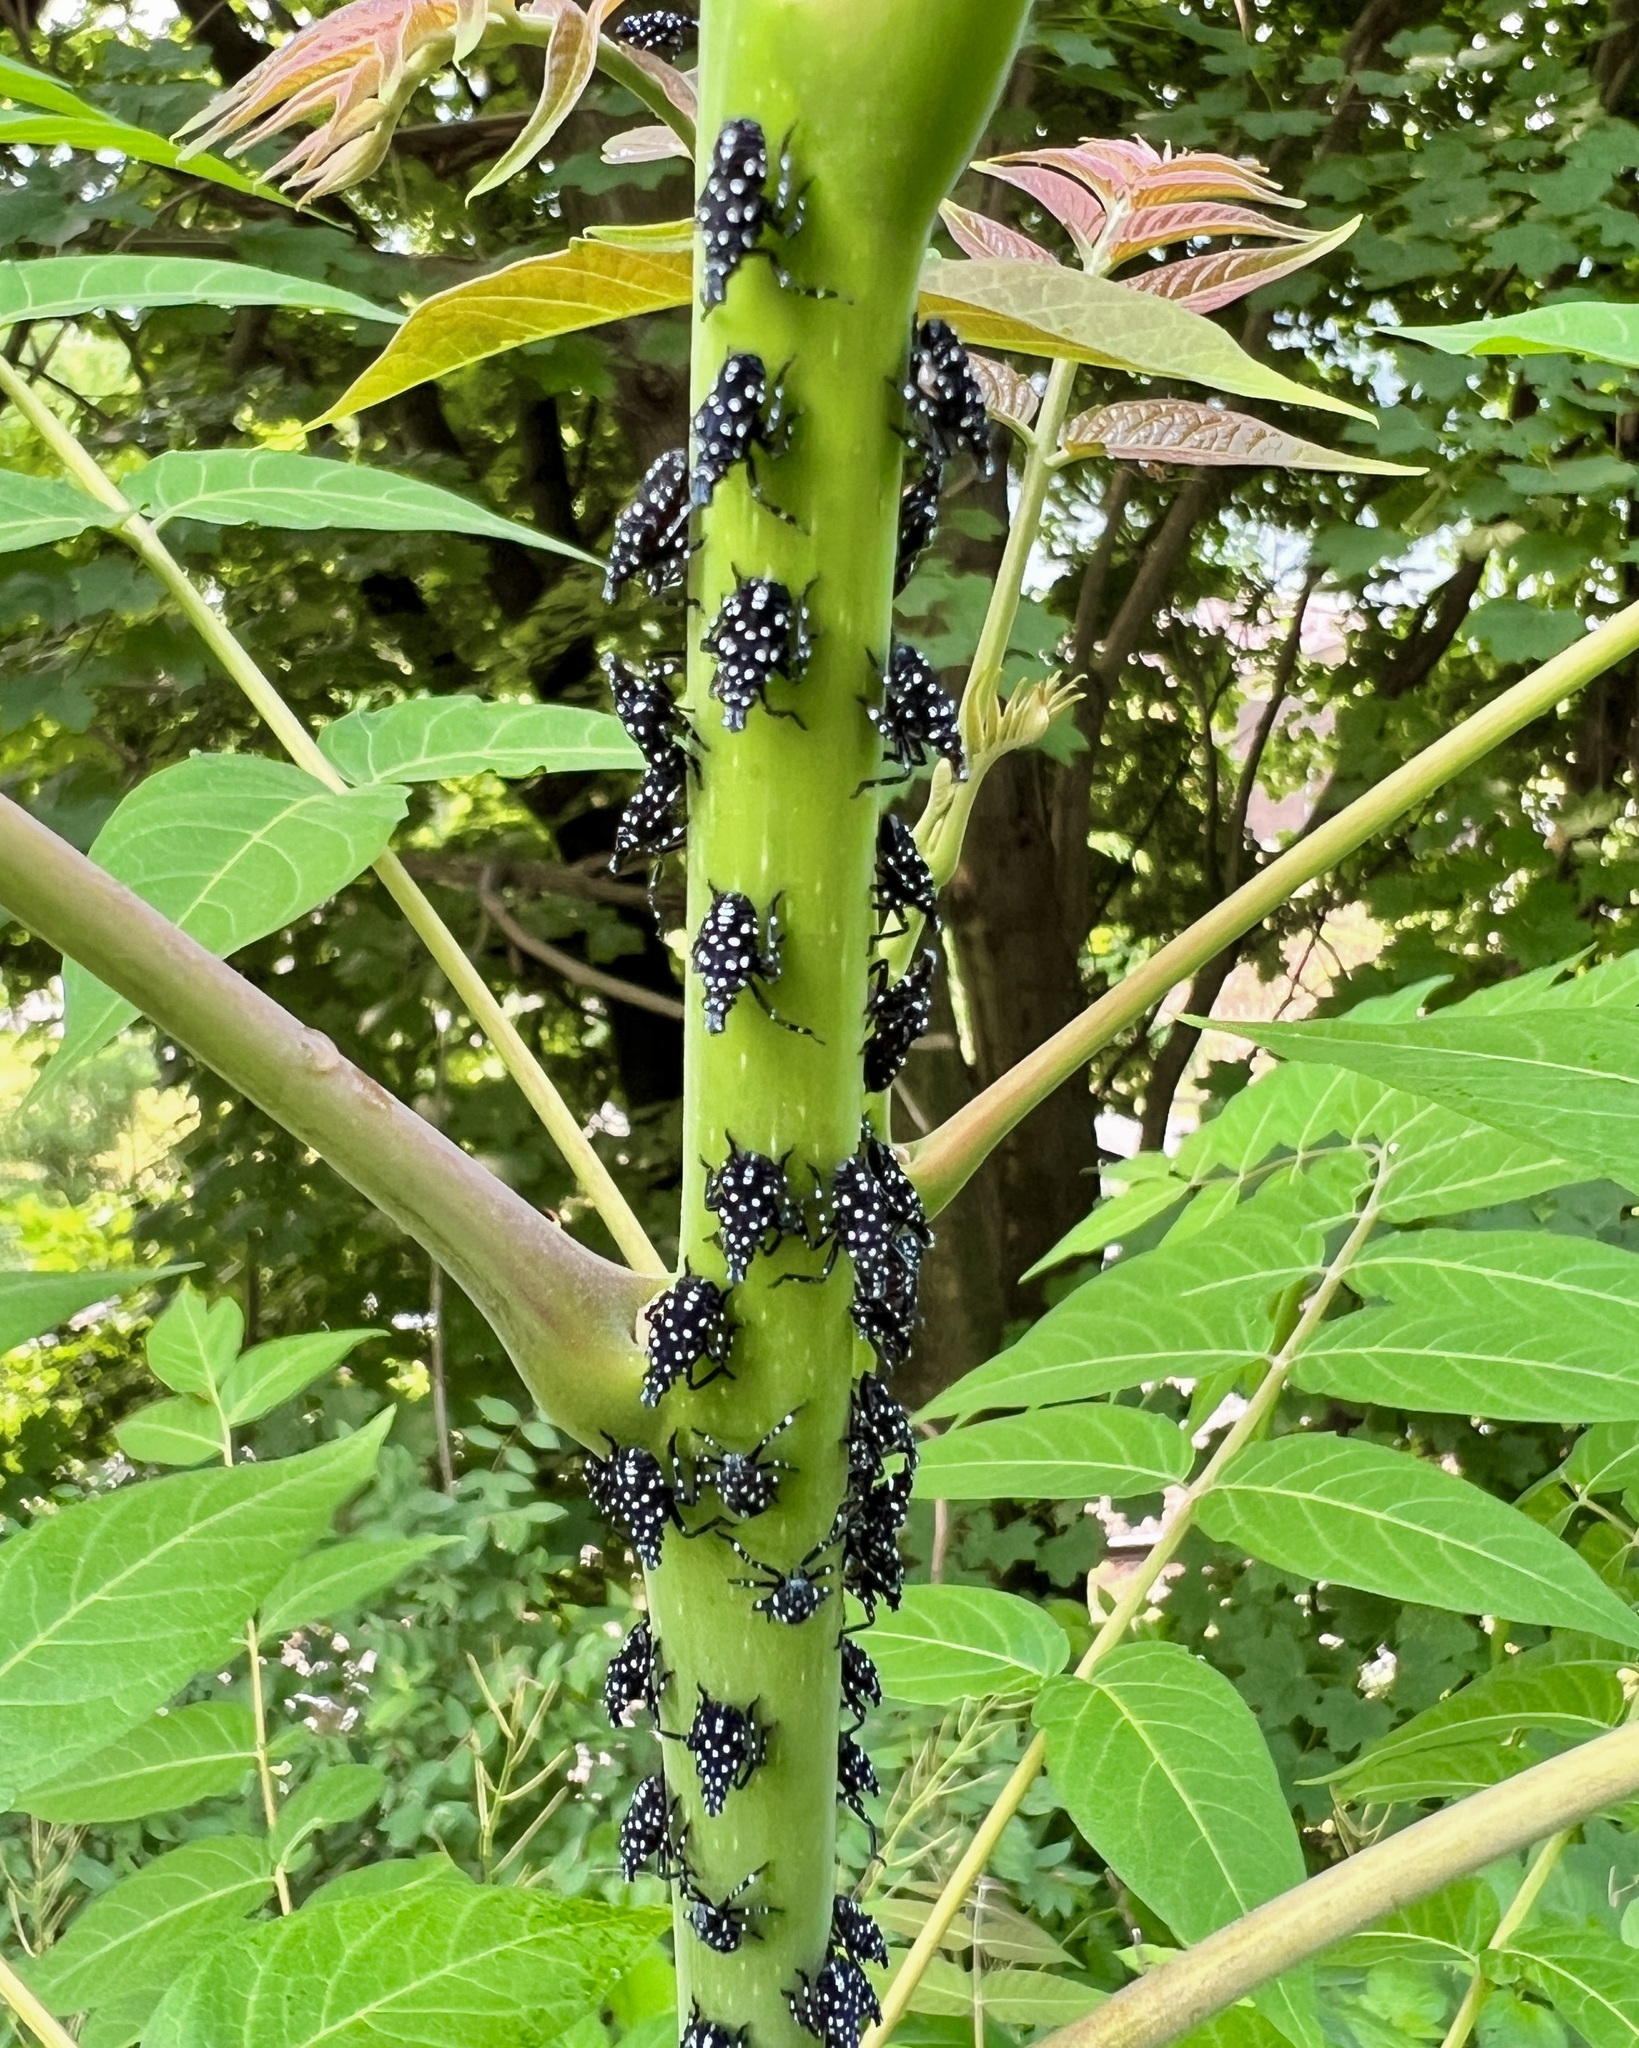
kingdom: Animalia
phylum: Arthropoda
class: Insecta
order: Hemiptera
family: Fulgoridae
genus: Lycorma
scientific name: Lycorma delicatula
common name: Spotted lanternfly
